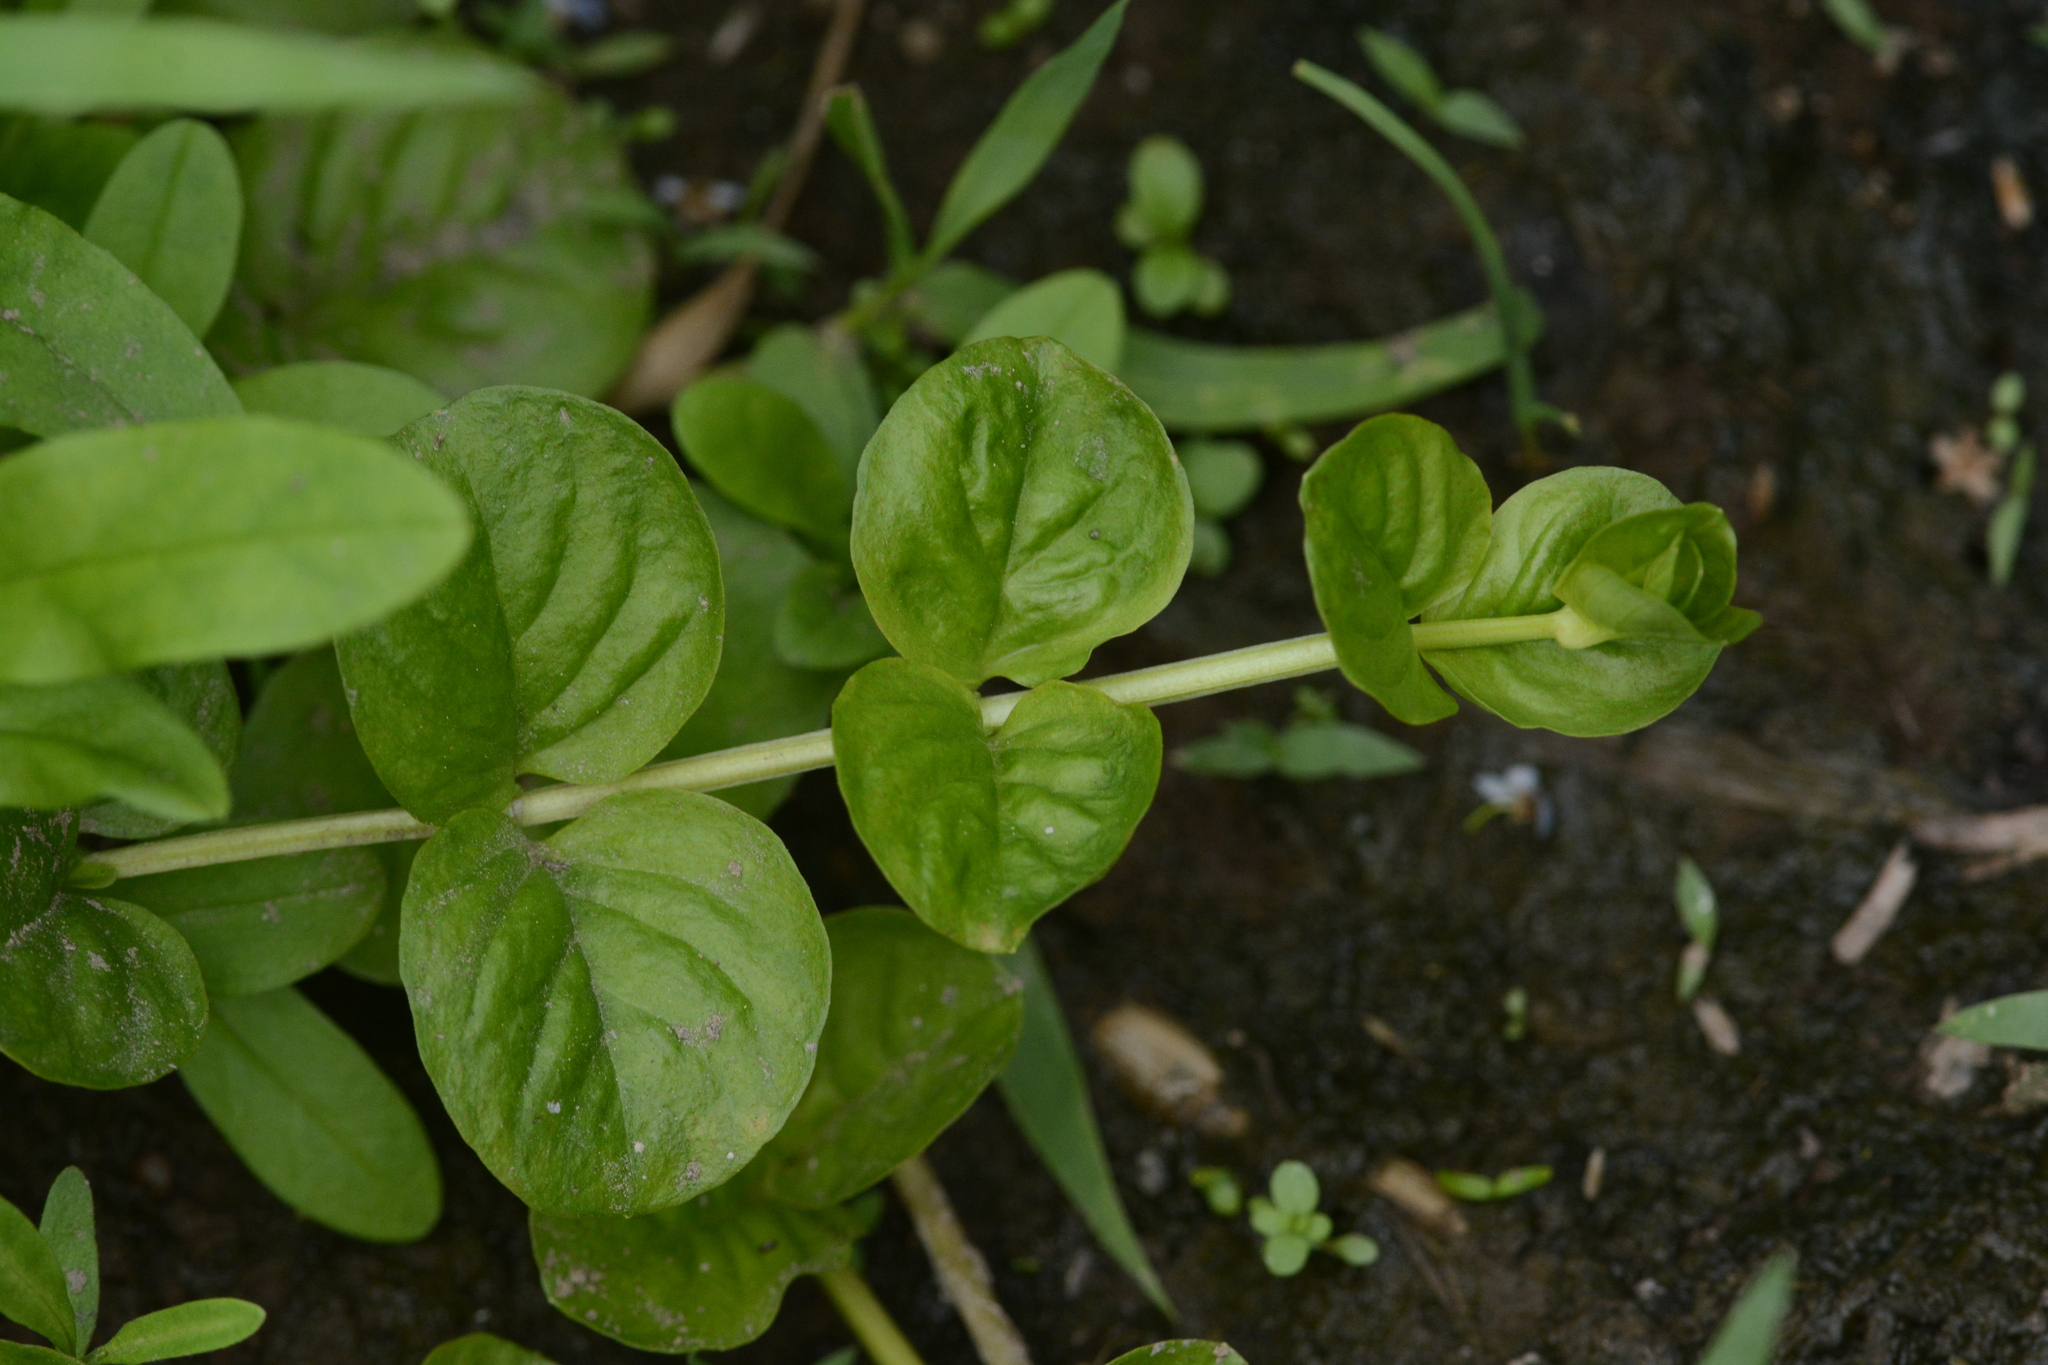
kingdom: Plantae
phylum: Tracheophyta
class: Magnoliopsida
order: Ericales
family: Primulaceae
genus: Lysimachia
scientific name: Lysimachia nummularia
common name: Moneywort
